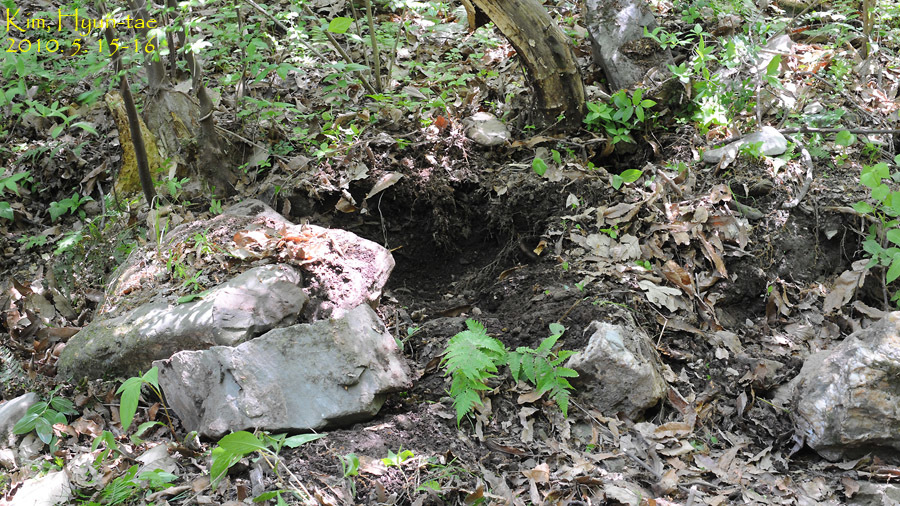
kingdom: Animalia
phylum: Chordata
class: Amphibia
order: Caudata
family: Plethodontidae
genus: Karsenia
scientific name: Karsenia koreana
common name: Korean crevice salamander
